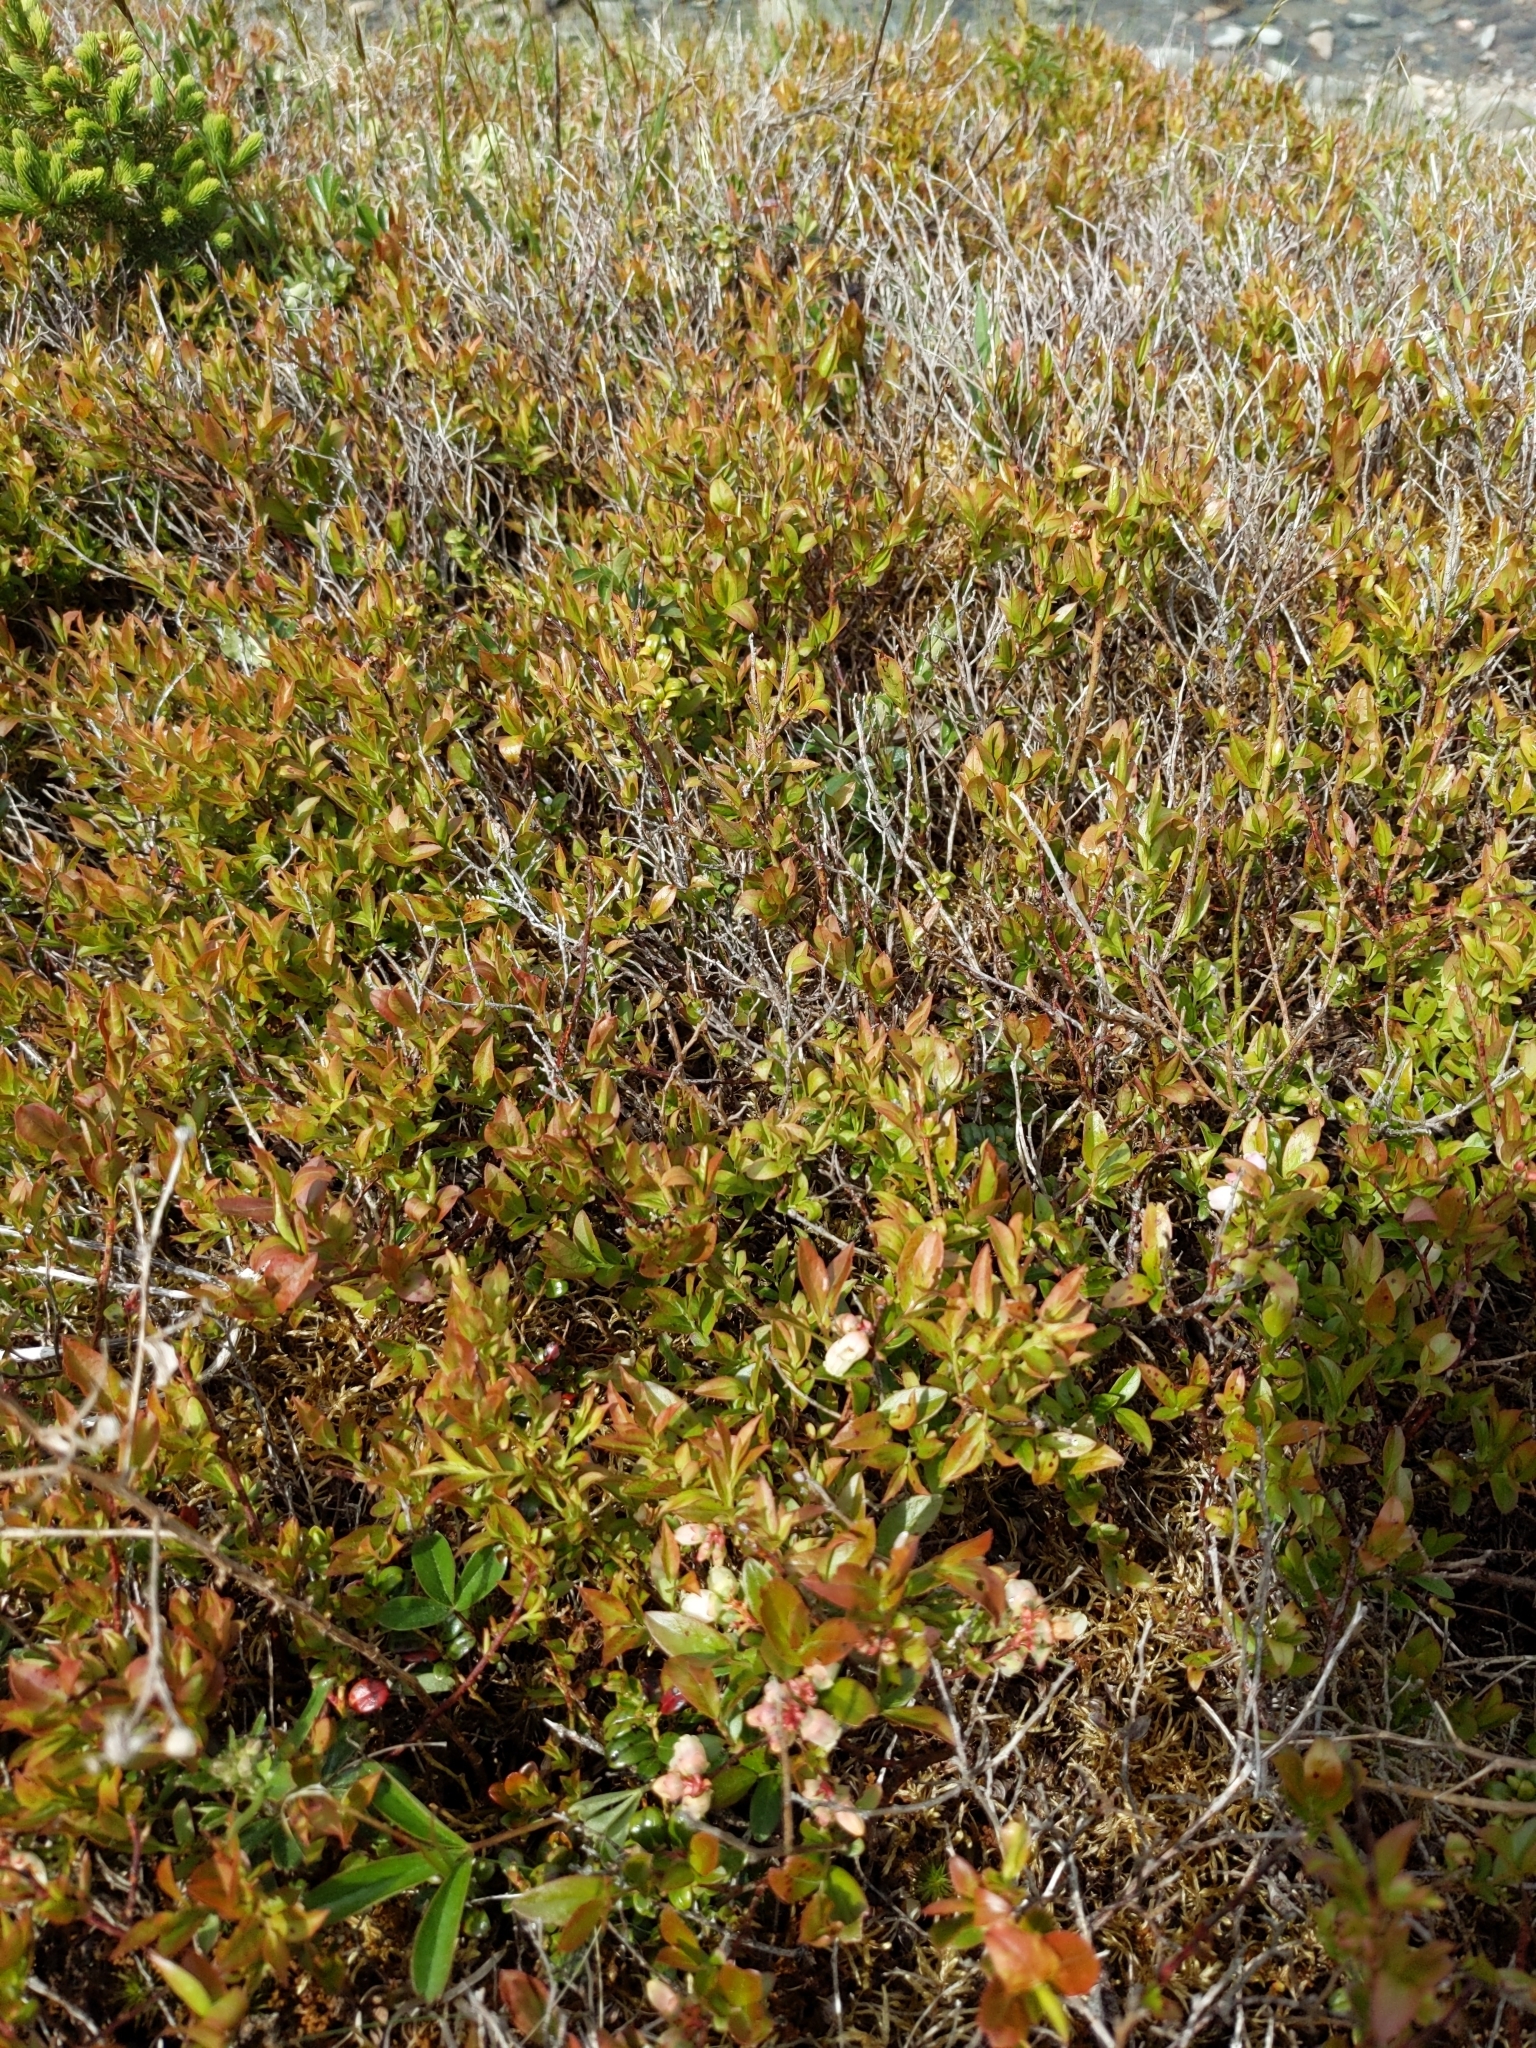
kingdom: Plantae
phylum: Tracheophyta
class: Magnoliopsida
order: Ericales
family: Ericaceae
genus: Vaccinium
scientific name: Vaccinium angustifolium
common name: Early lowbush blueberry
